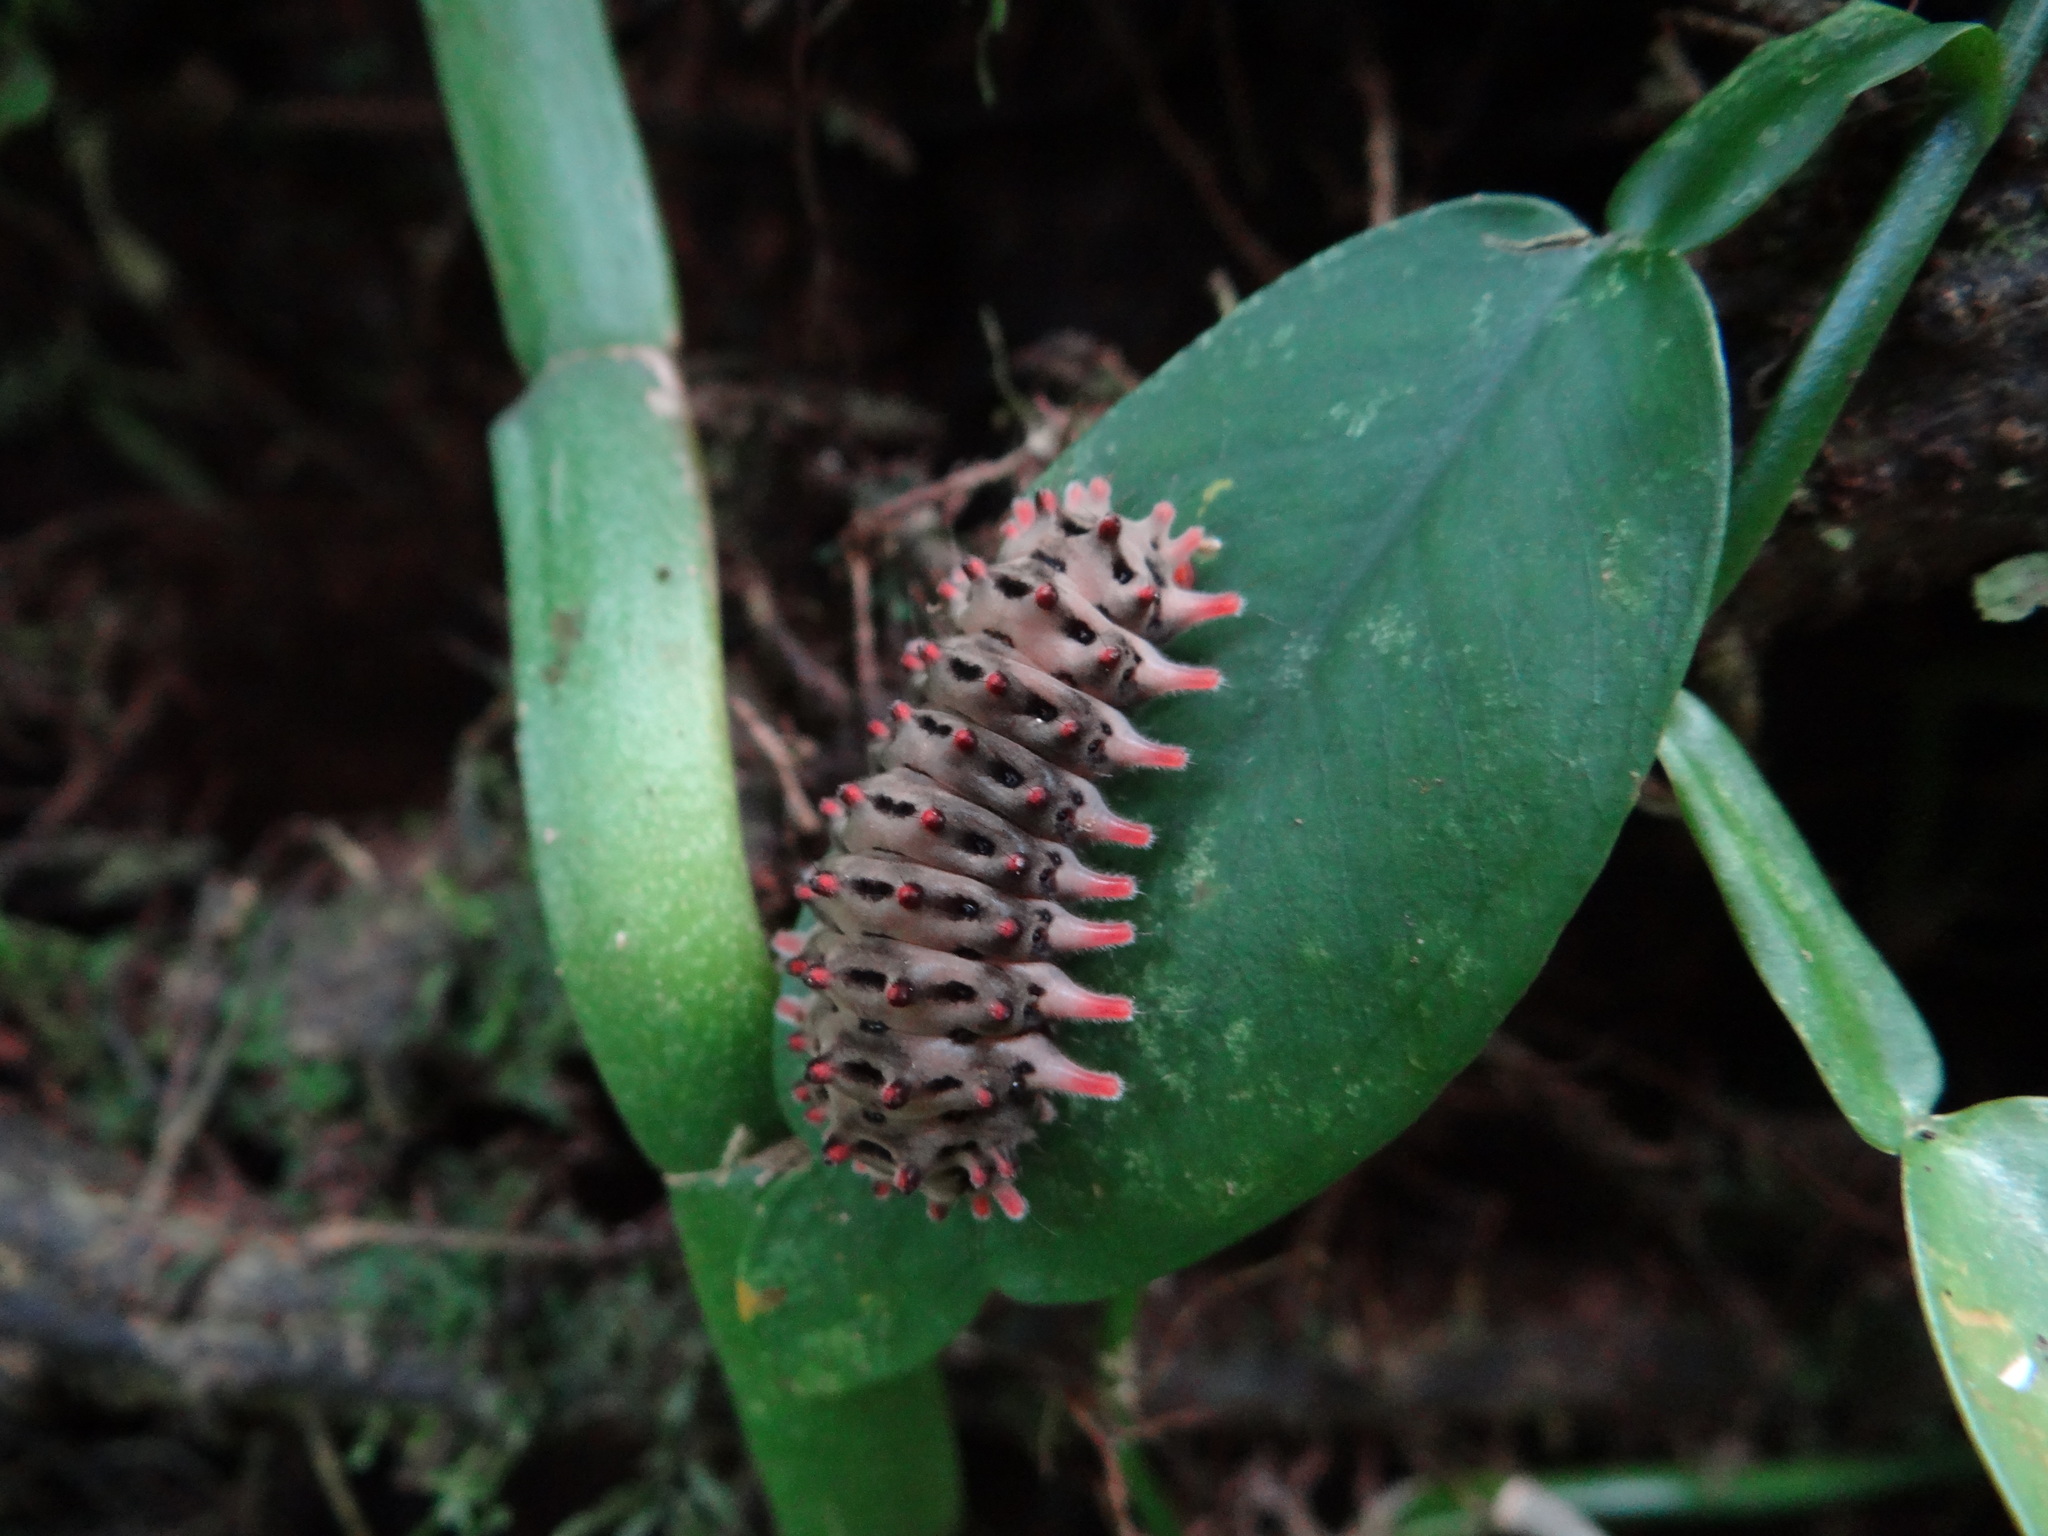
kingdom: Animalia
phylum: Arthropoda
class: Insecta
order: Lepidoptera
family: Zygaenidae
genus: Histia
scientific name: Histia flabellicornis
